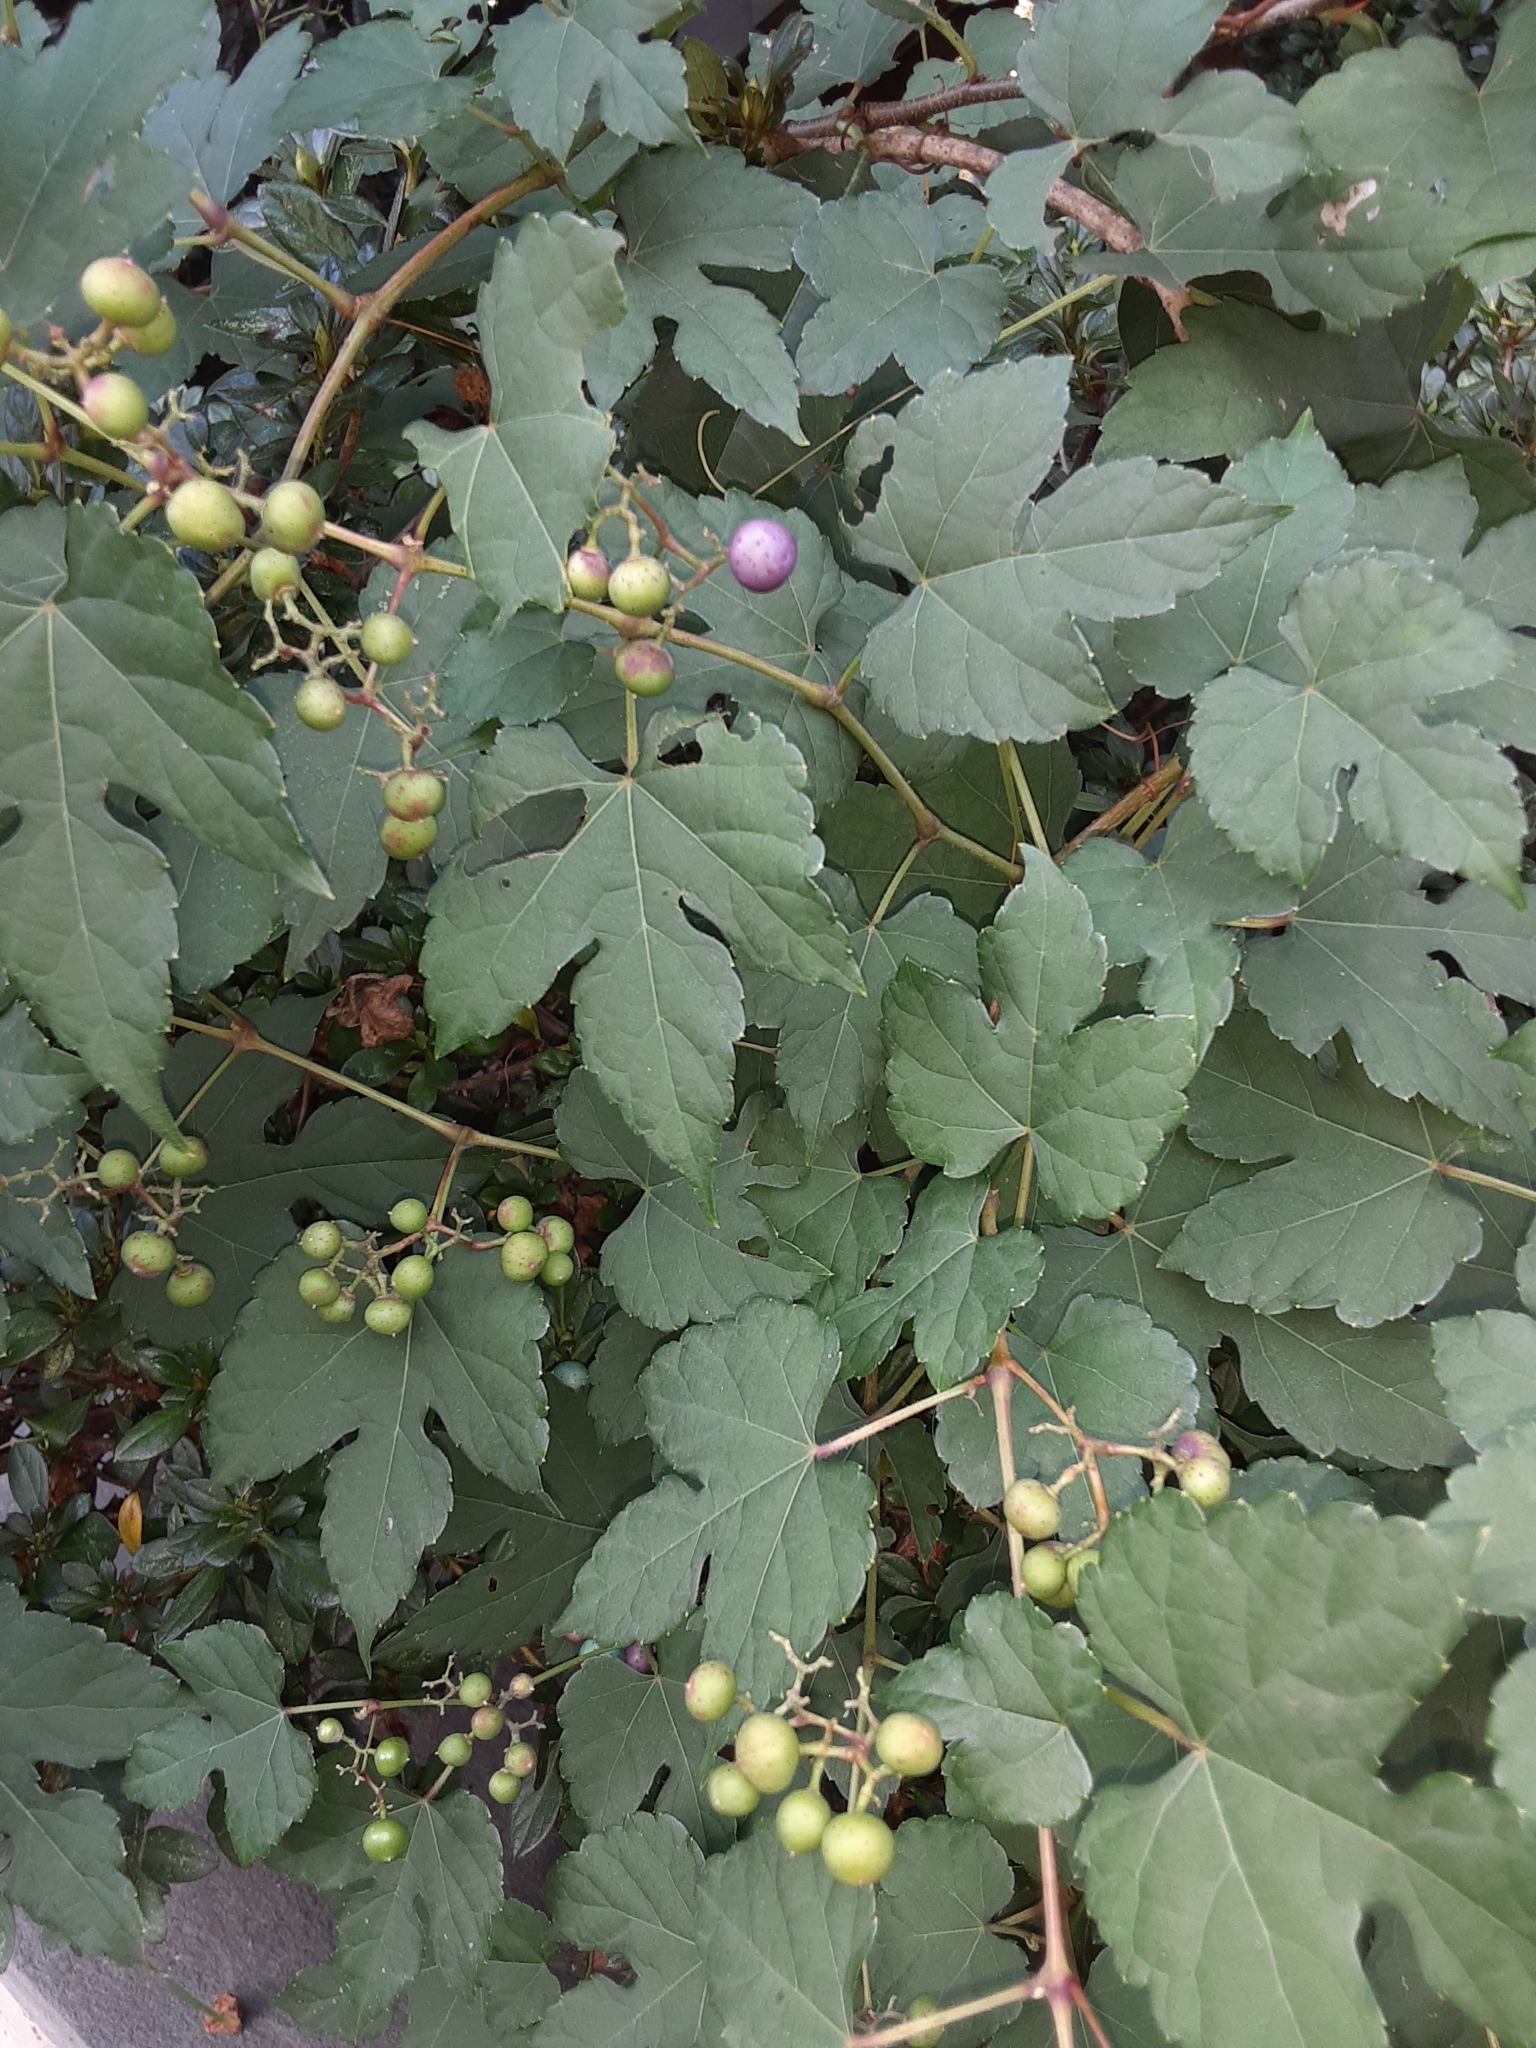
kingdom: Plantae
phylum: Tracheophyta
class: Magnoliopsida
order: Vitales
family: Vitaceae
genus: Ampelopsis
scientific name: Ampelopsis glandulosa
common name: Amur peppervine
